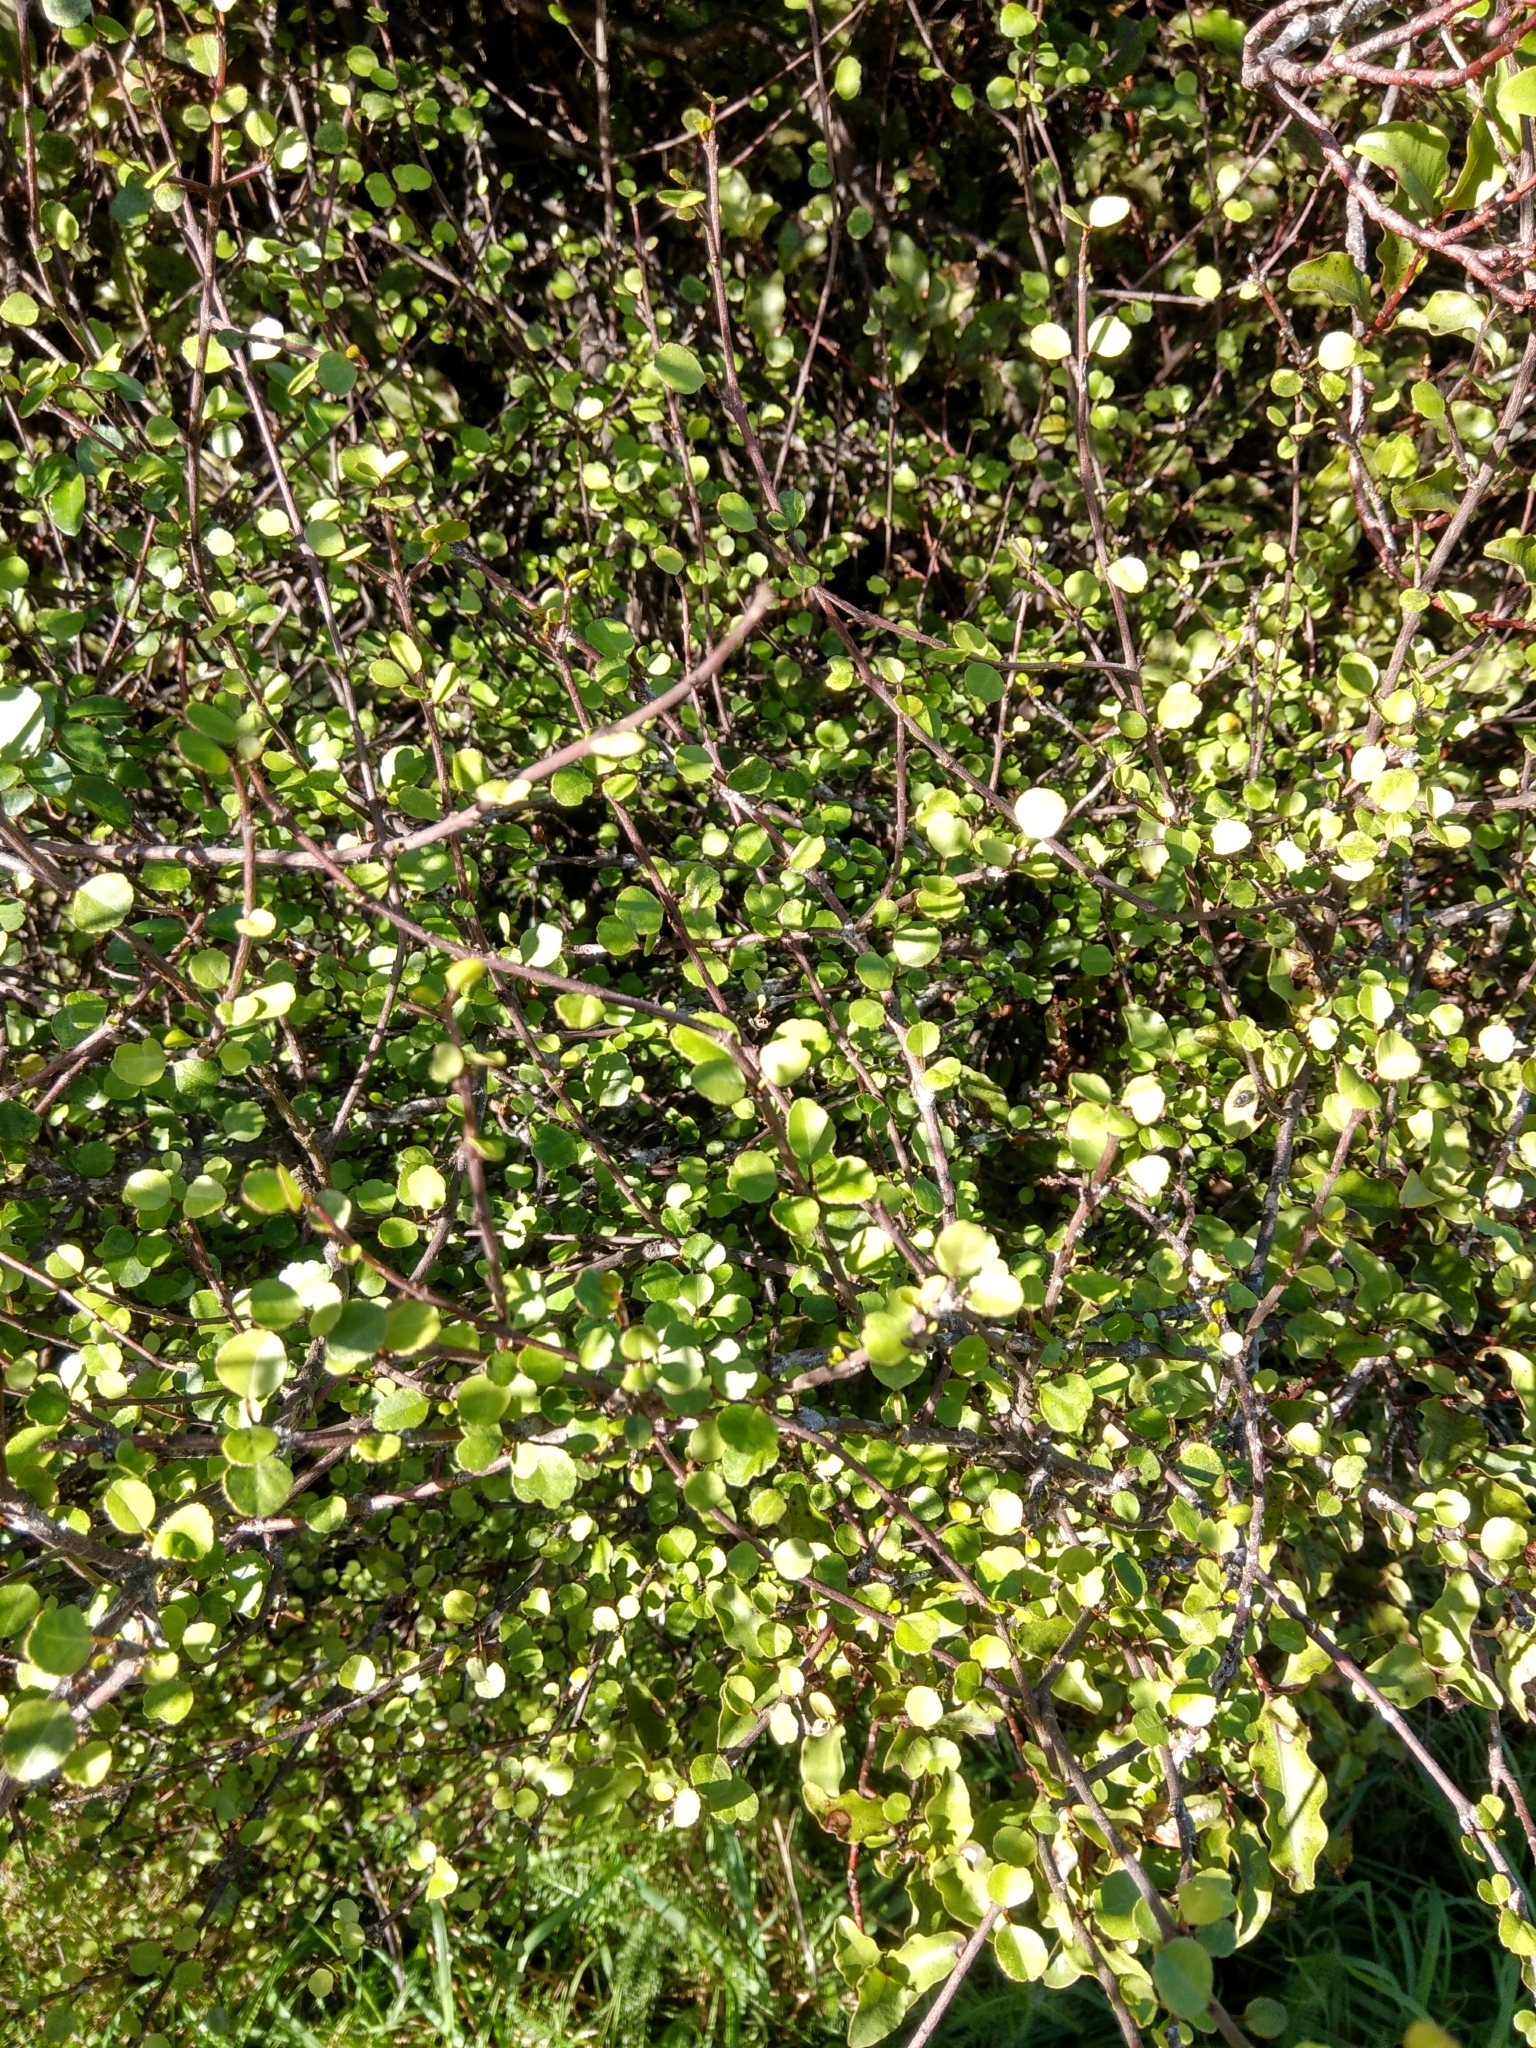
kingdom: Plantae
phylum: Tracheophyta
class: Magnoliopsida
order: Sapindales
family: Rutaceae
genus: Melicope
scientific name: Melicope simplex
